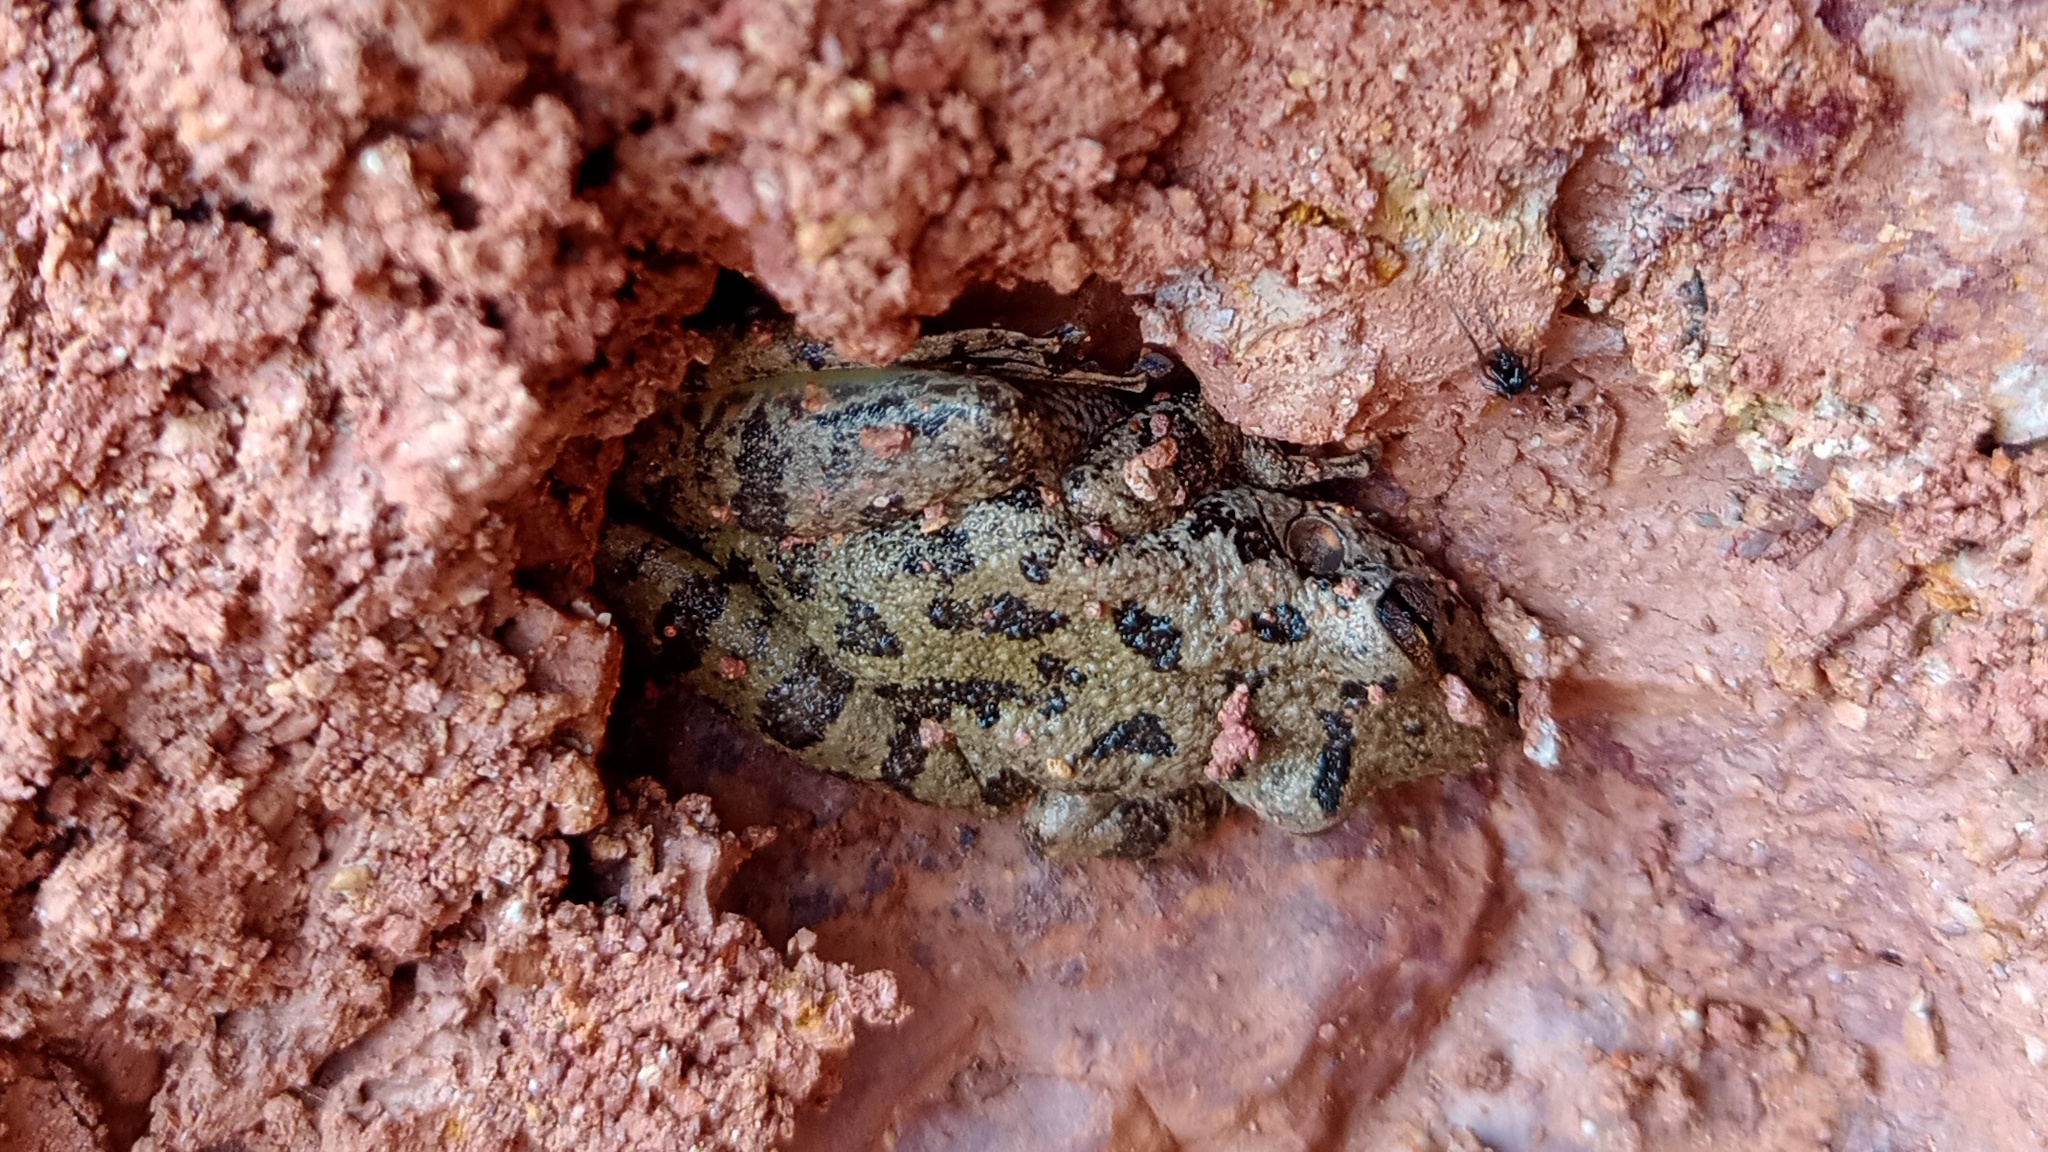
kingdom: Animalia
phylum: Chordata
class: Amphibia
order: Anura
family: Hylidae
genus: Scinax
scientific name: Scinax rossaferesae
